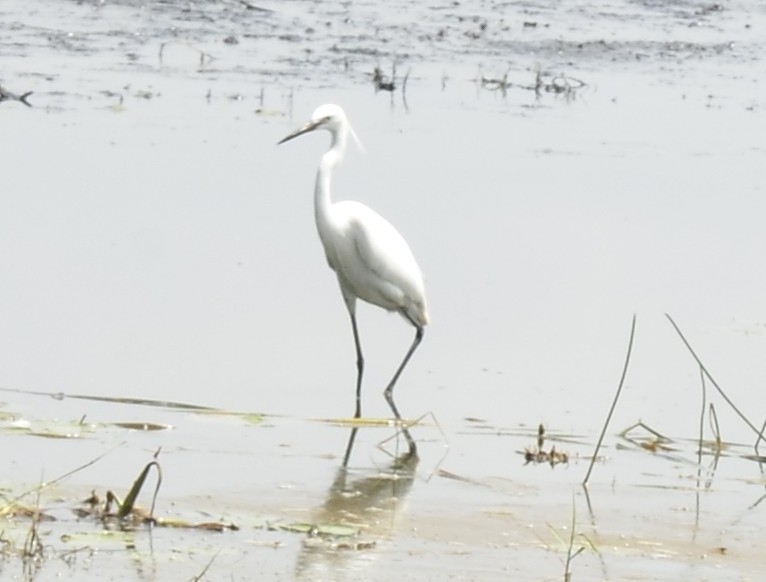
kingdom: Animalia
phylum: Chordata
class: Aves
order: Pelecaniformes
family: Ardeidae
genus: Egretta
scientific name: Egretta garzetta
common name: Little egret
